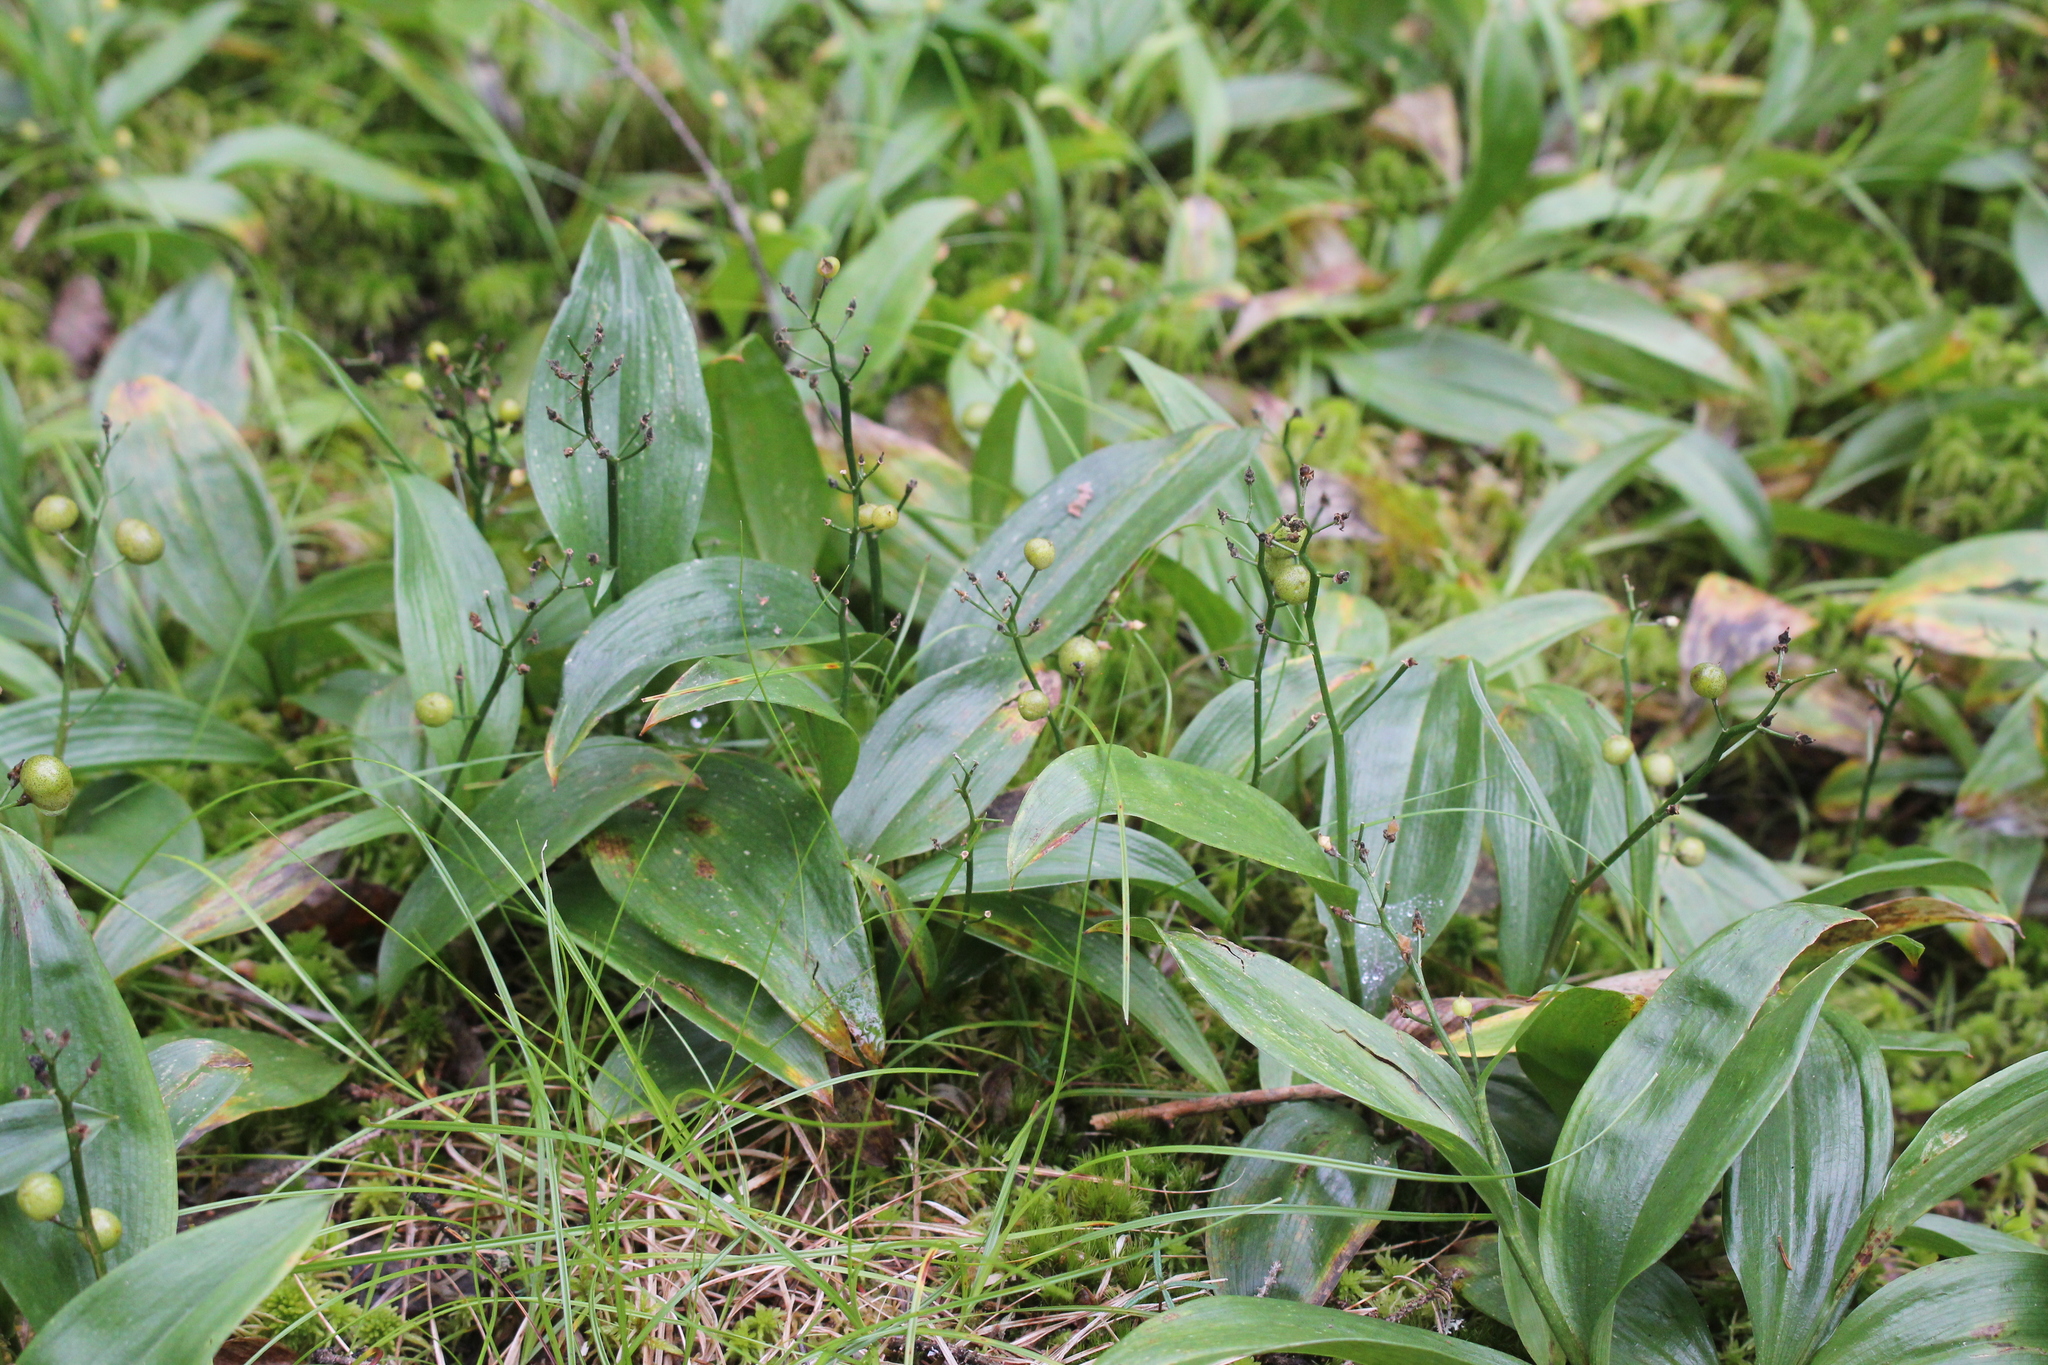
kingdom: Plantae
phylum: Tracheophyta
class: Liliopsida
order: Asparagales
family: Asparagaceae
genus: Maianthemum
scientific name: Maianthemum trifolium
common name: Swamp false solomon's seal
